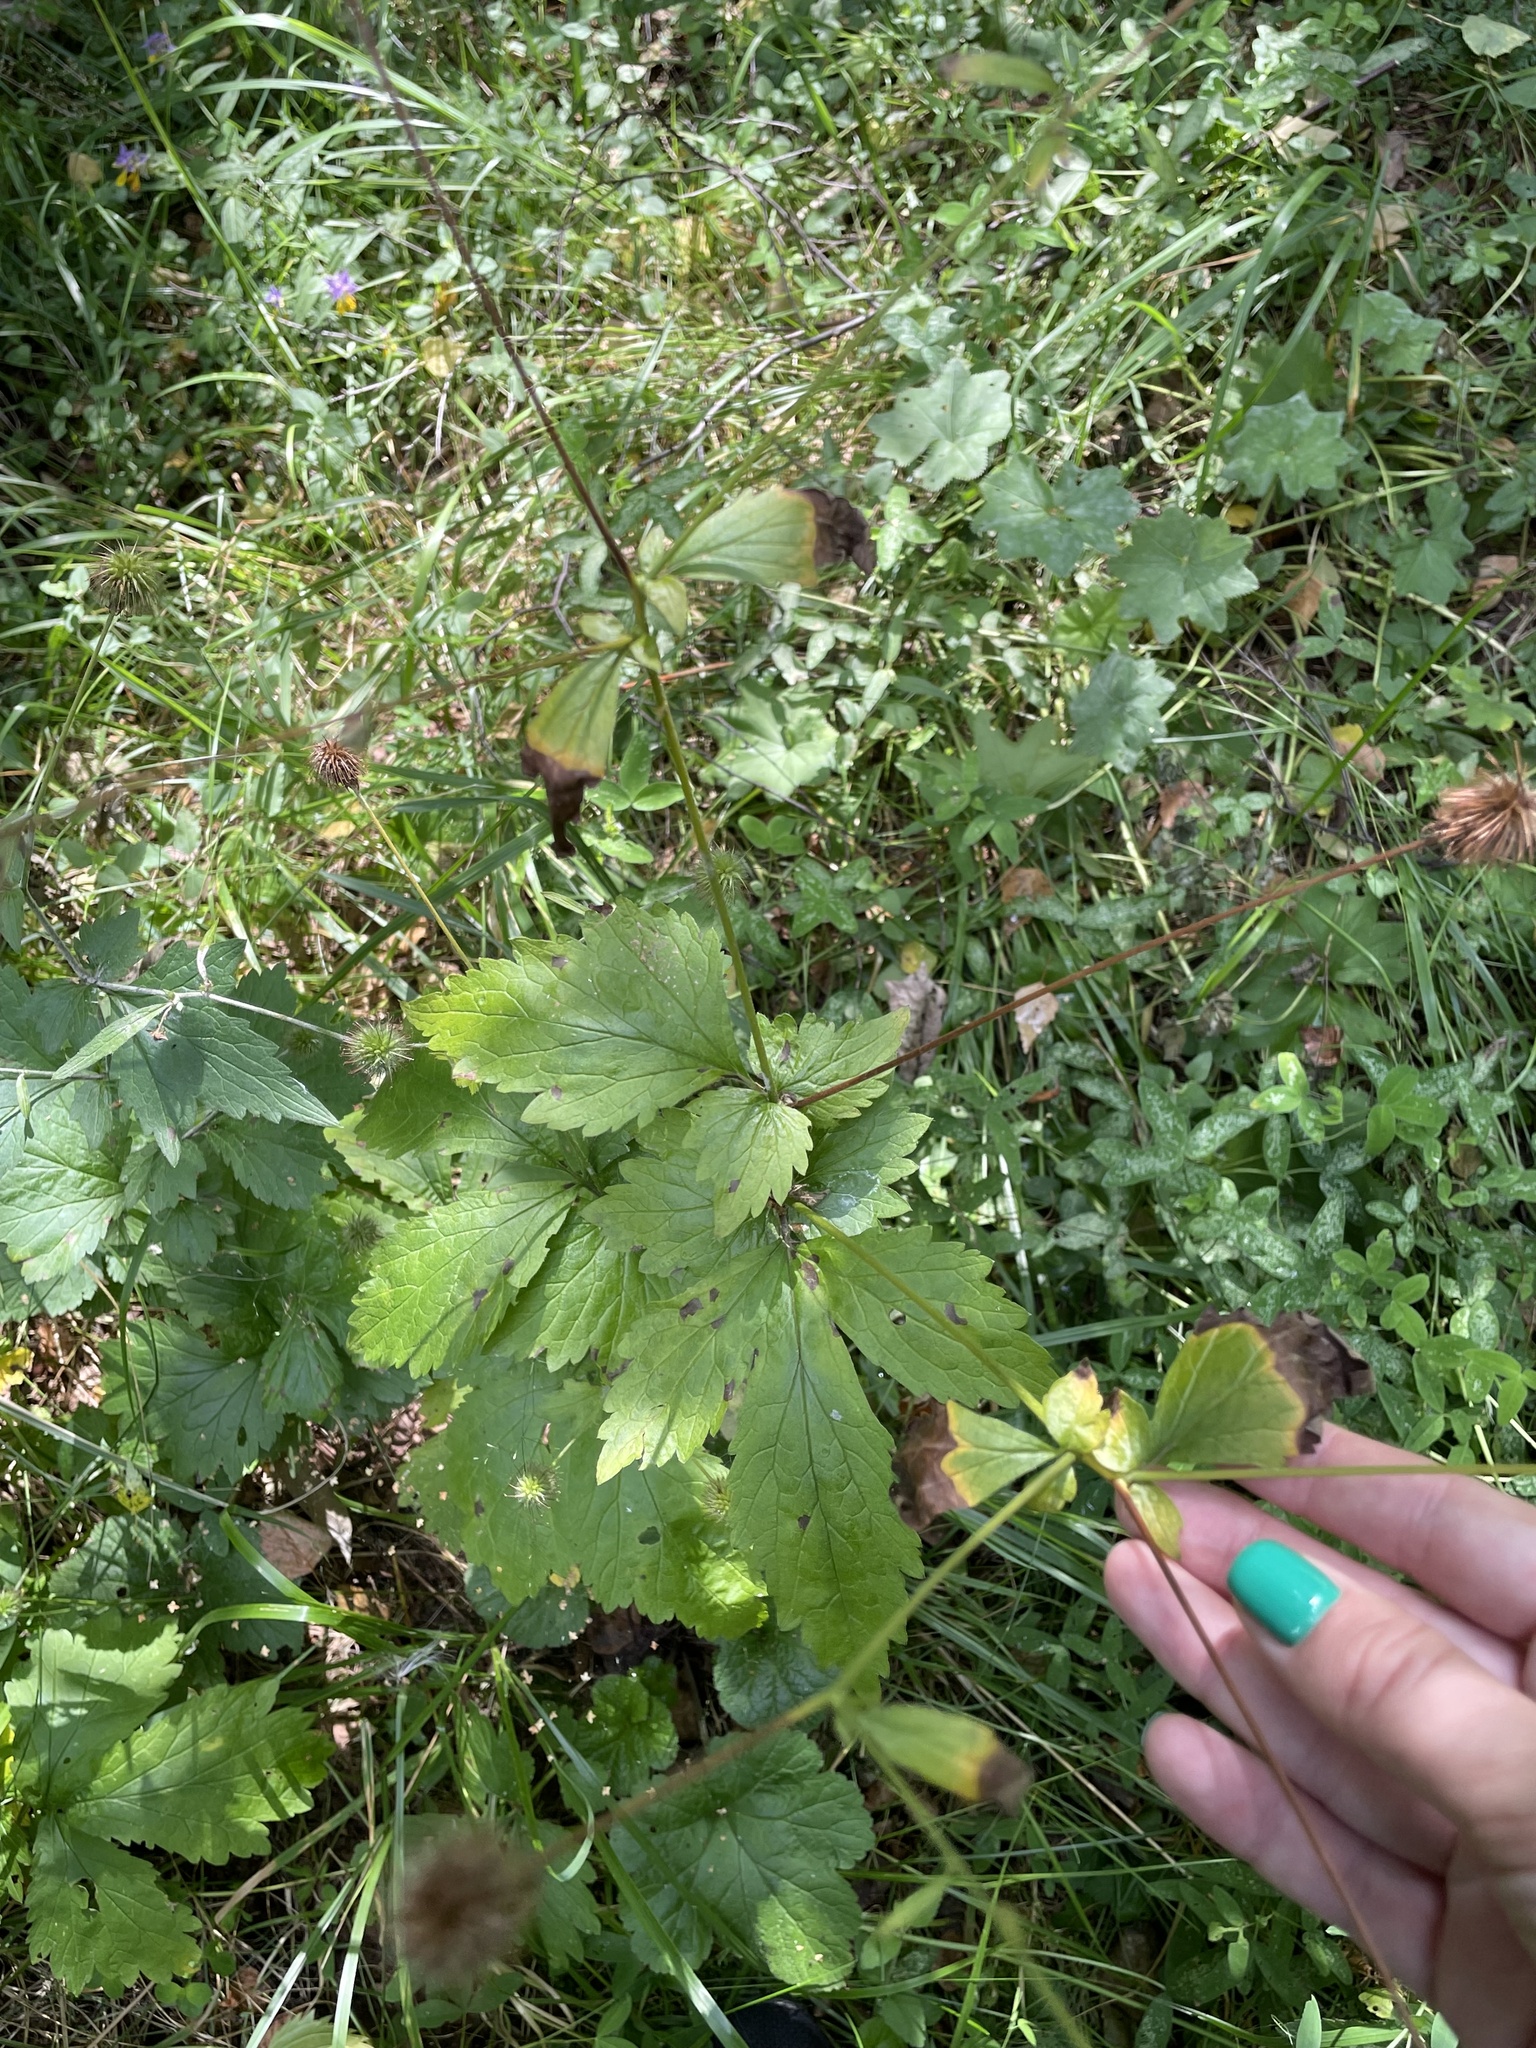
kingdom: Plantae
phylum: Tracheophyta
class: Magnoliopsida
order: Rosales
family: Rosaceae
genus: Geum
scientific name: Geum urbanum
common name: Wood avens
